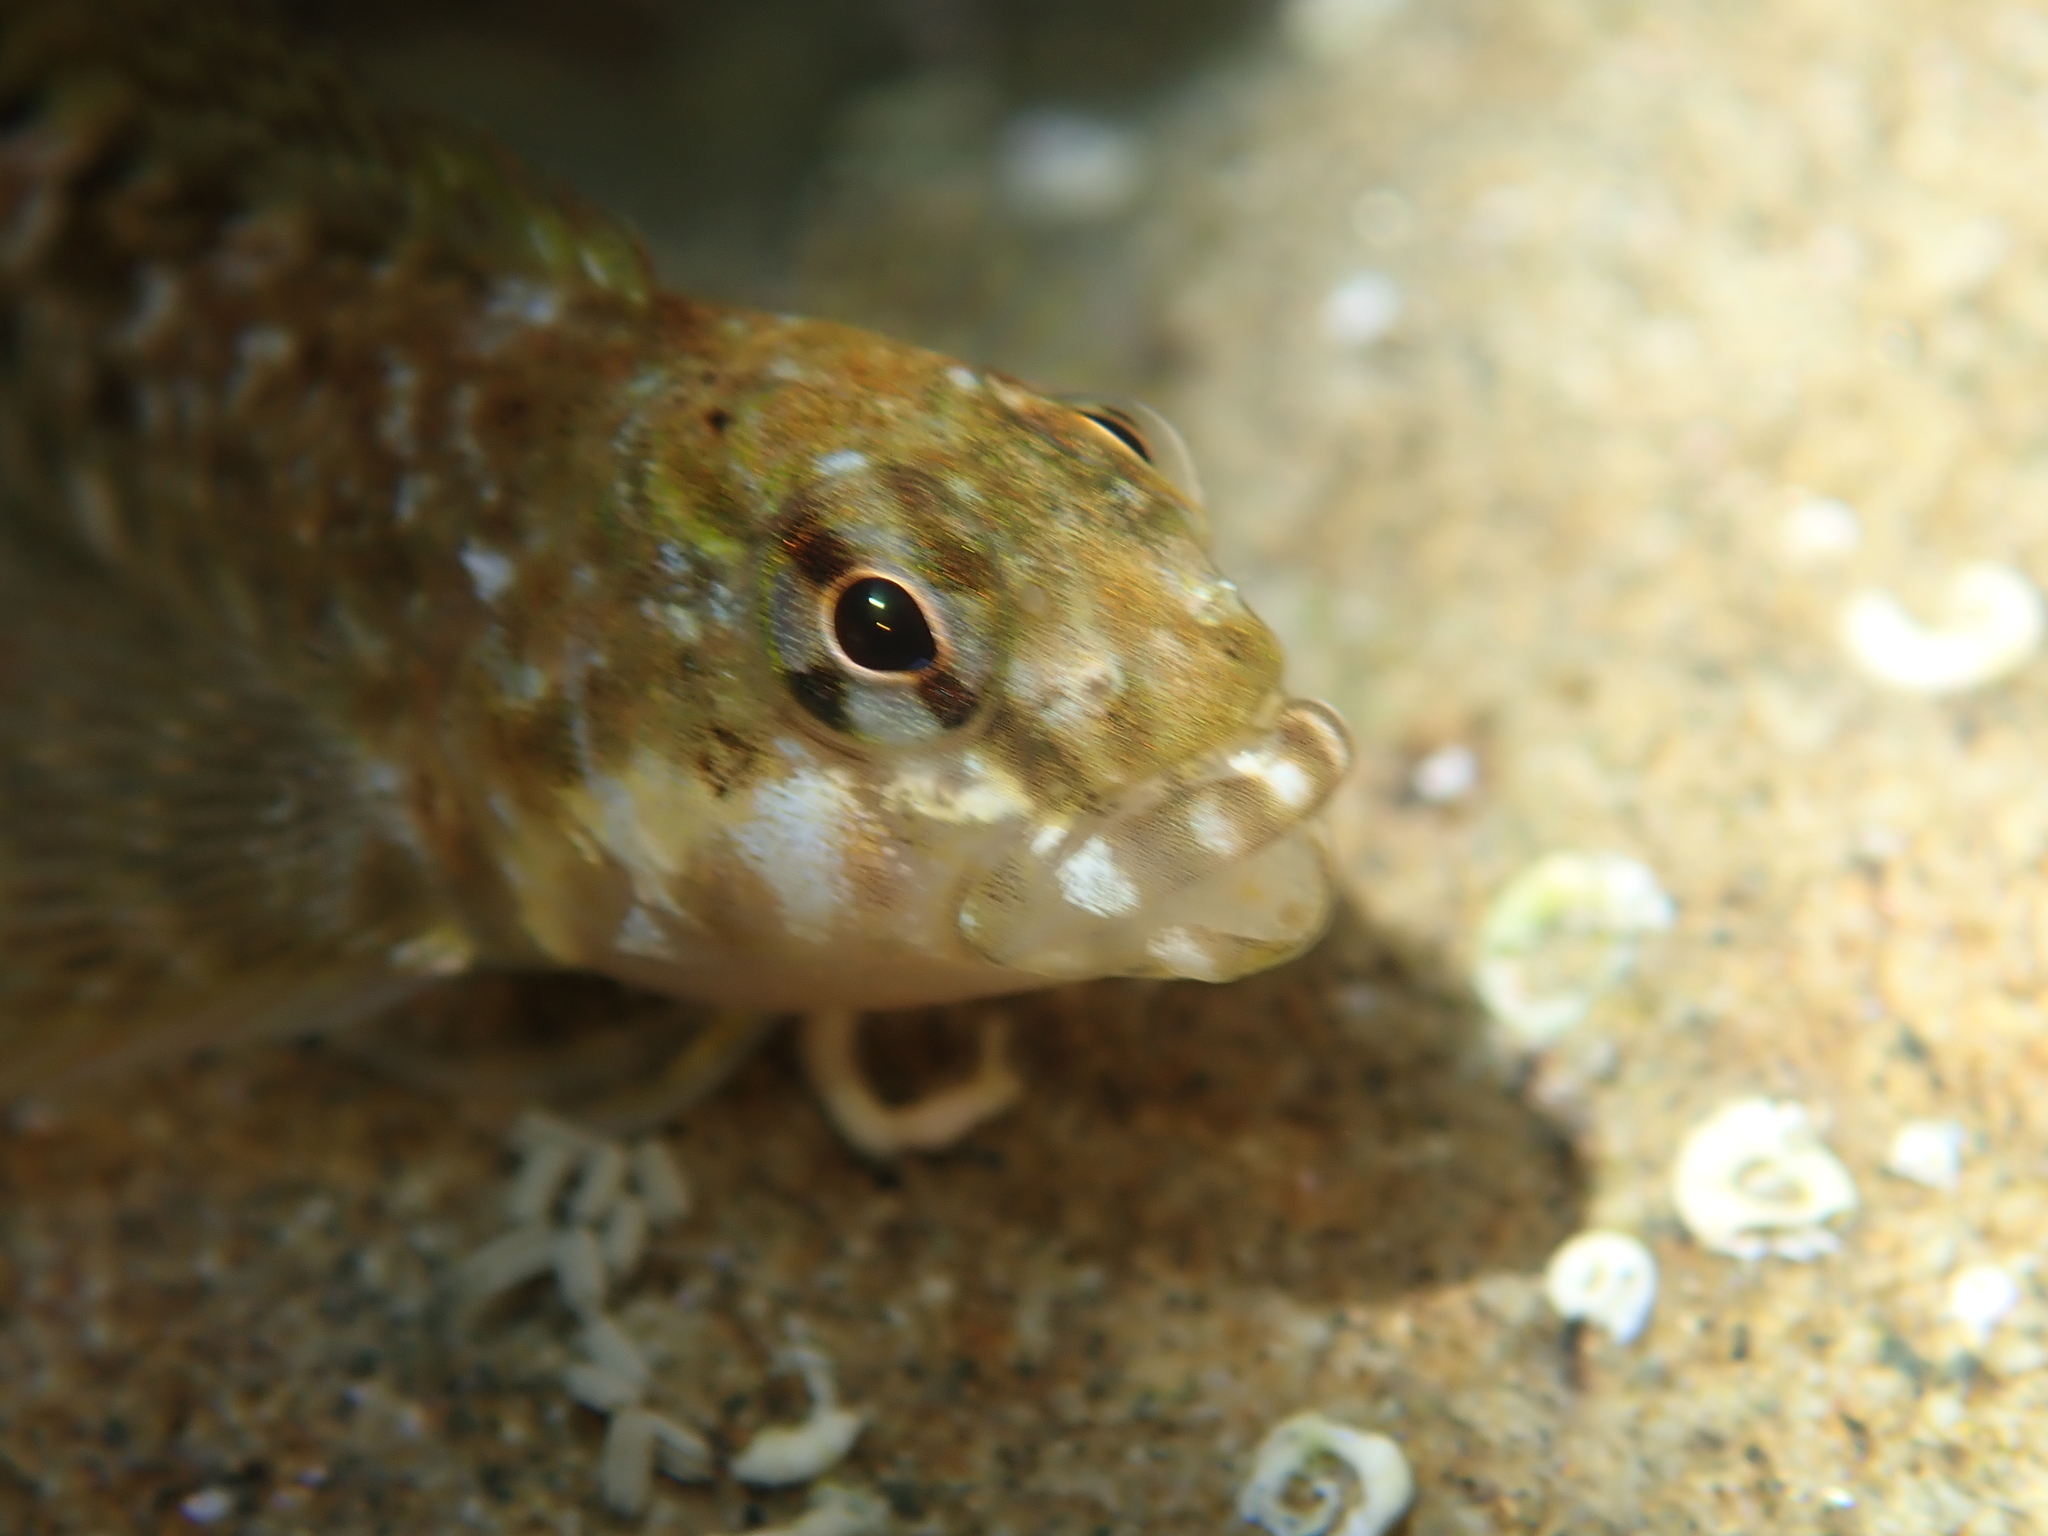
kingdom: Animalia
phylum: Chordata
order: Perciformes
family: Tripterygiidae
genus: Bellapiscis
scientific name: Bellapiscis medius
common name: Twister
